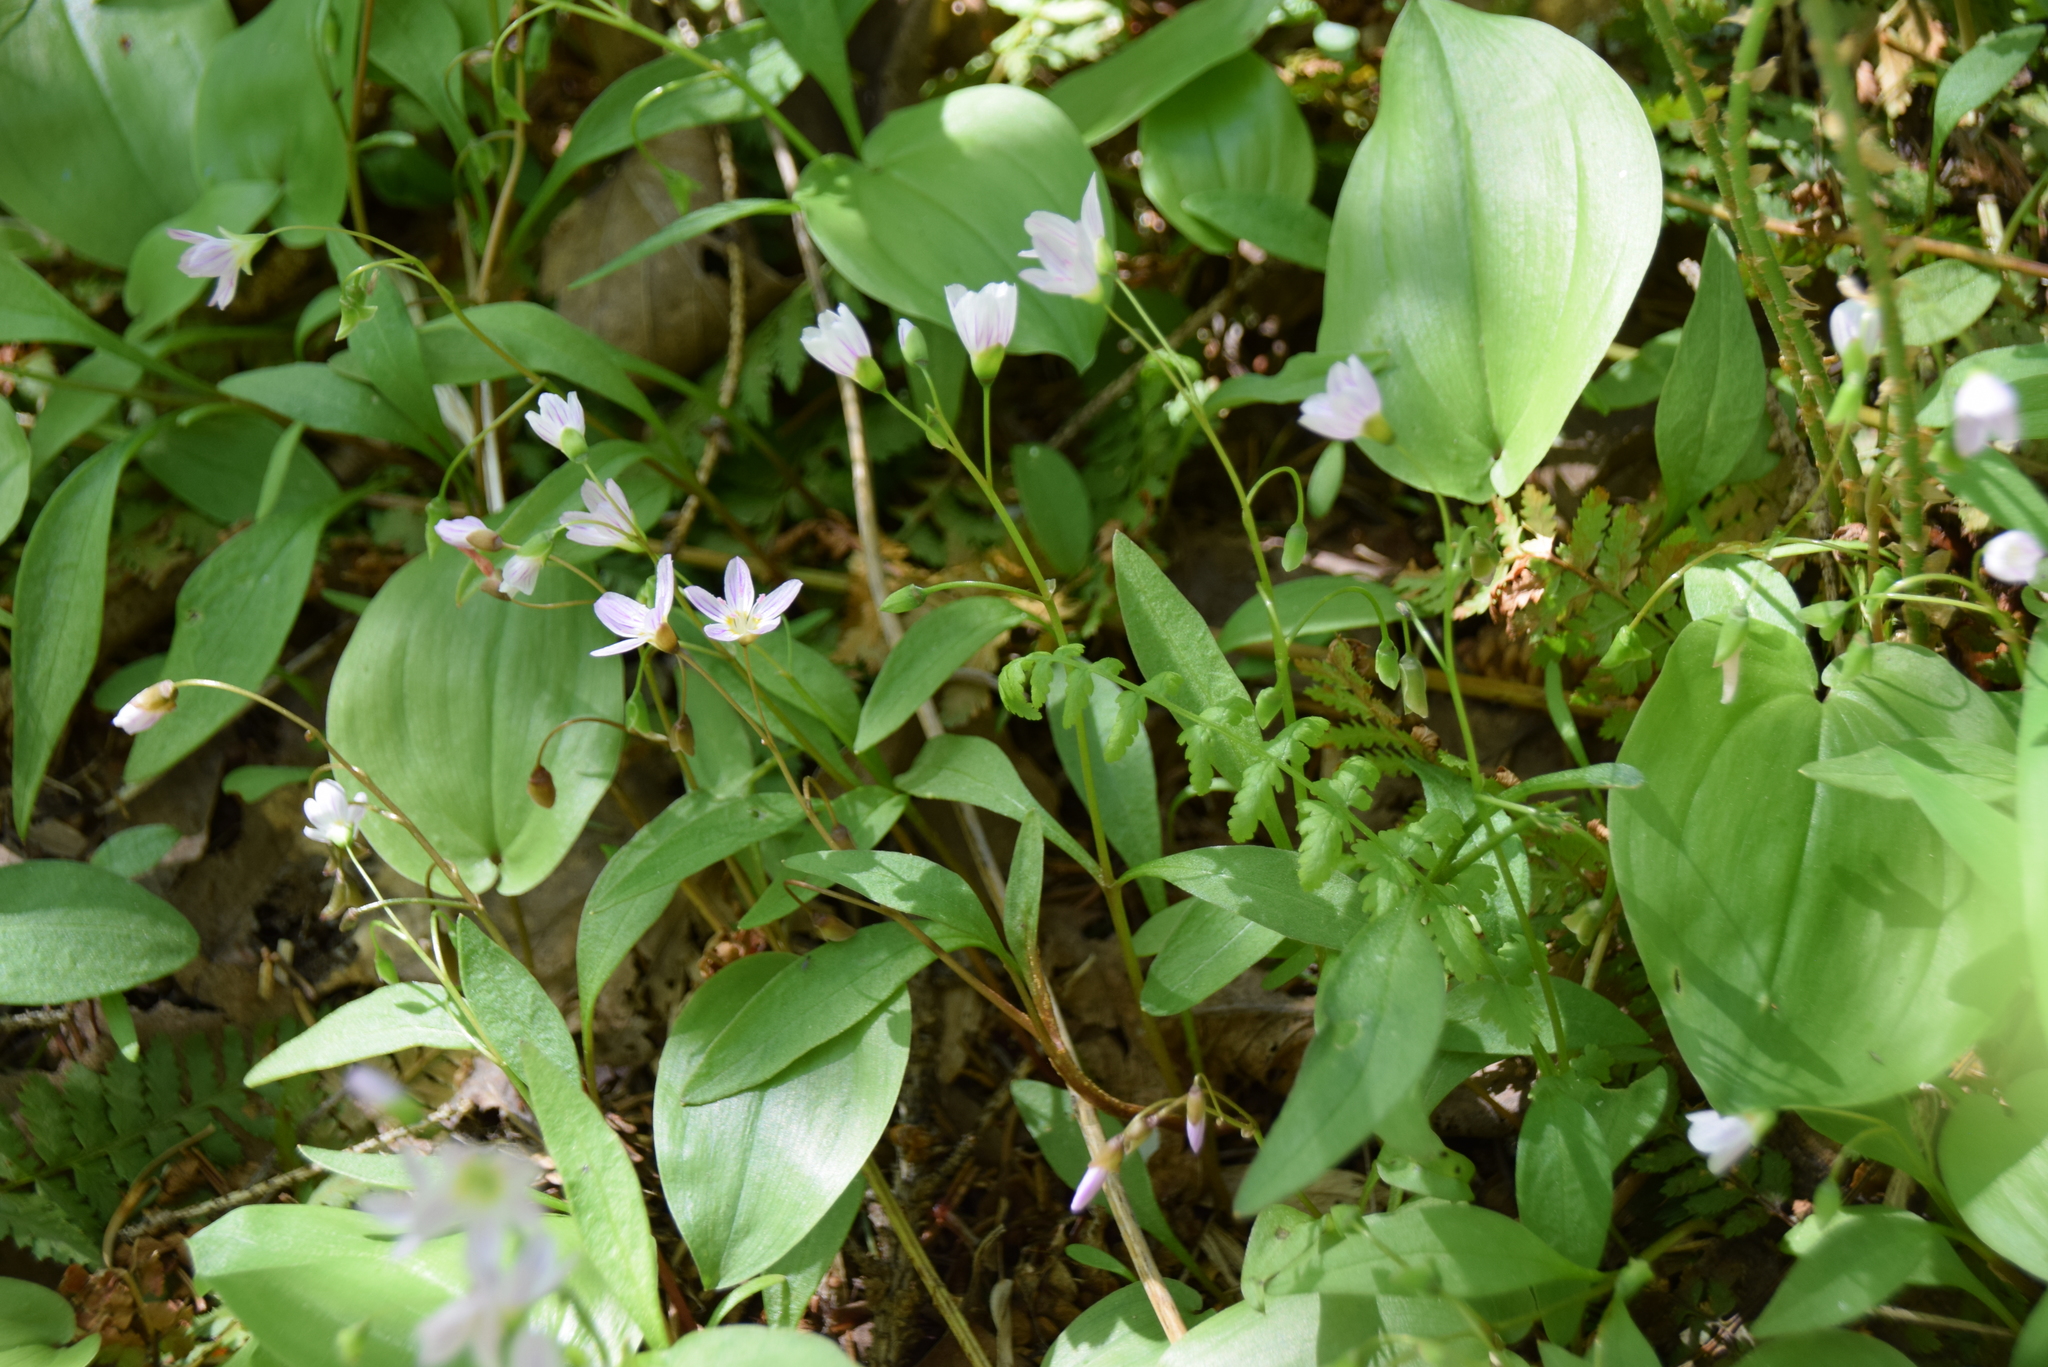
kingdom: Plantae
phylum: Tracheophyta
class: Magnoliopsida
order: Caryophyllales
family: Montiaceae
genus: Claytonia
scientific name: Claytonia caroliniana
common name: Carolina spring beauty
